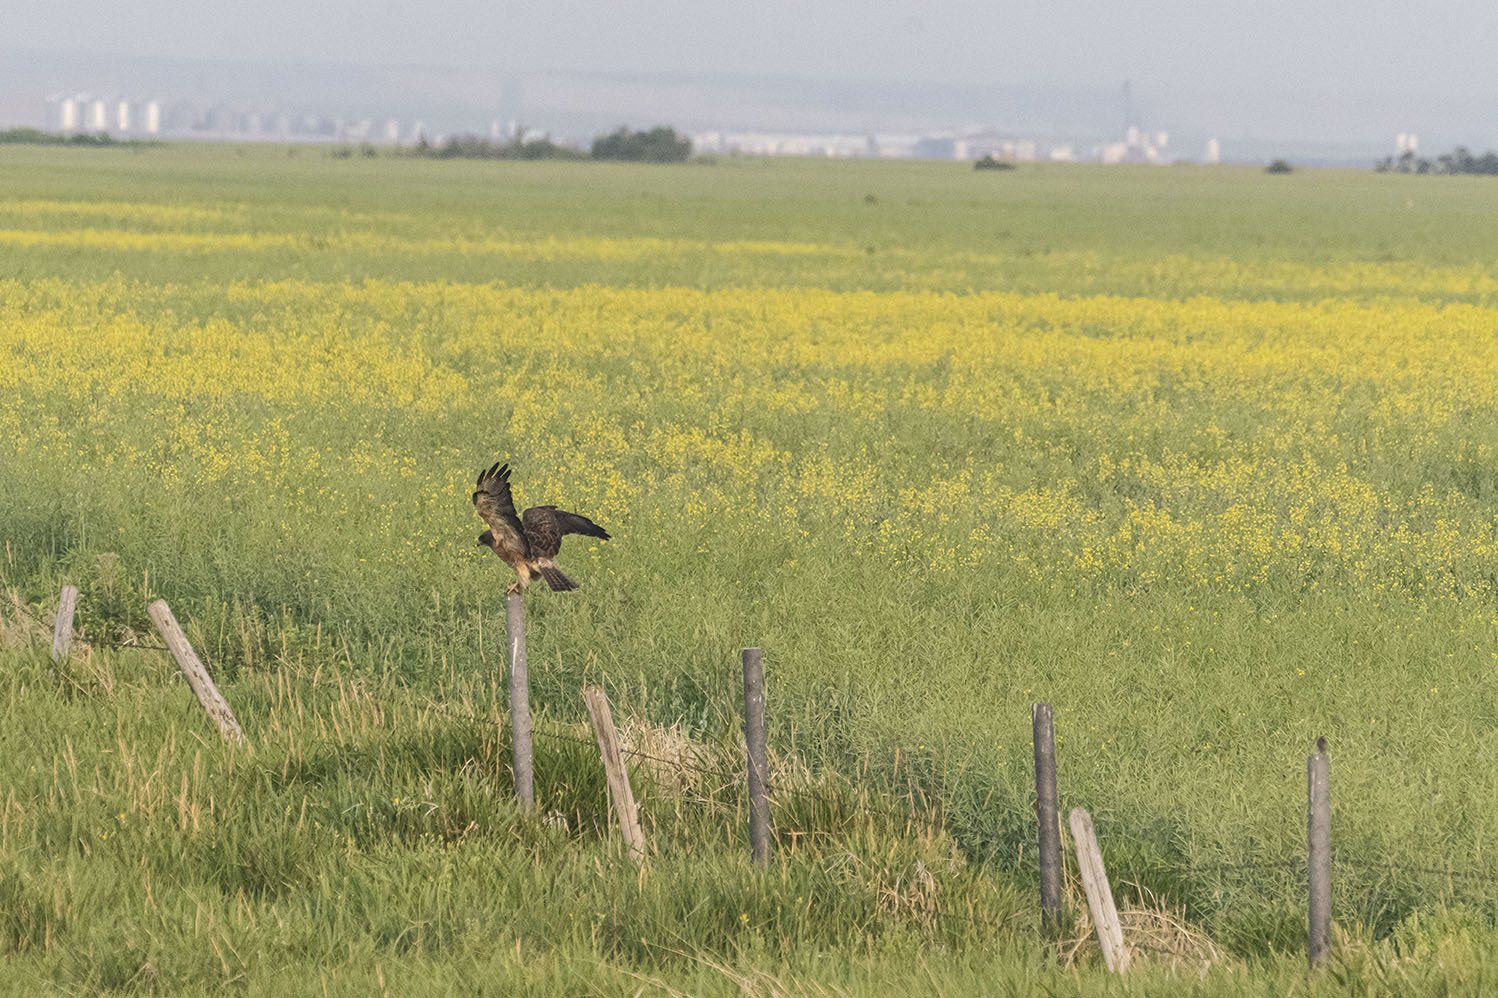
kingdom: Animalia
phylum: Chordata
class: Aves
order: Accipitriformes
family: Accipitridae
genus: Buteo
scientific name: Buteo swainsoni
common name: Swainson's hawk
